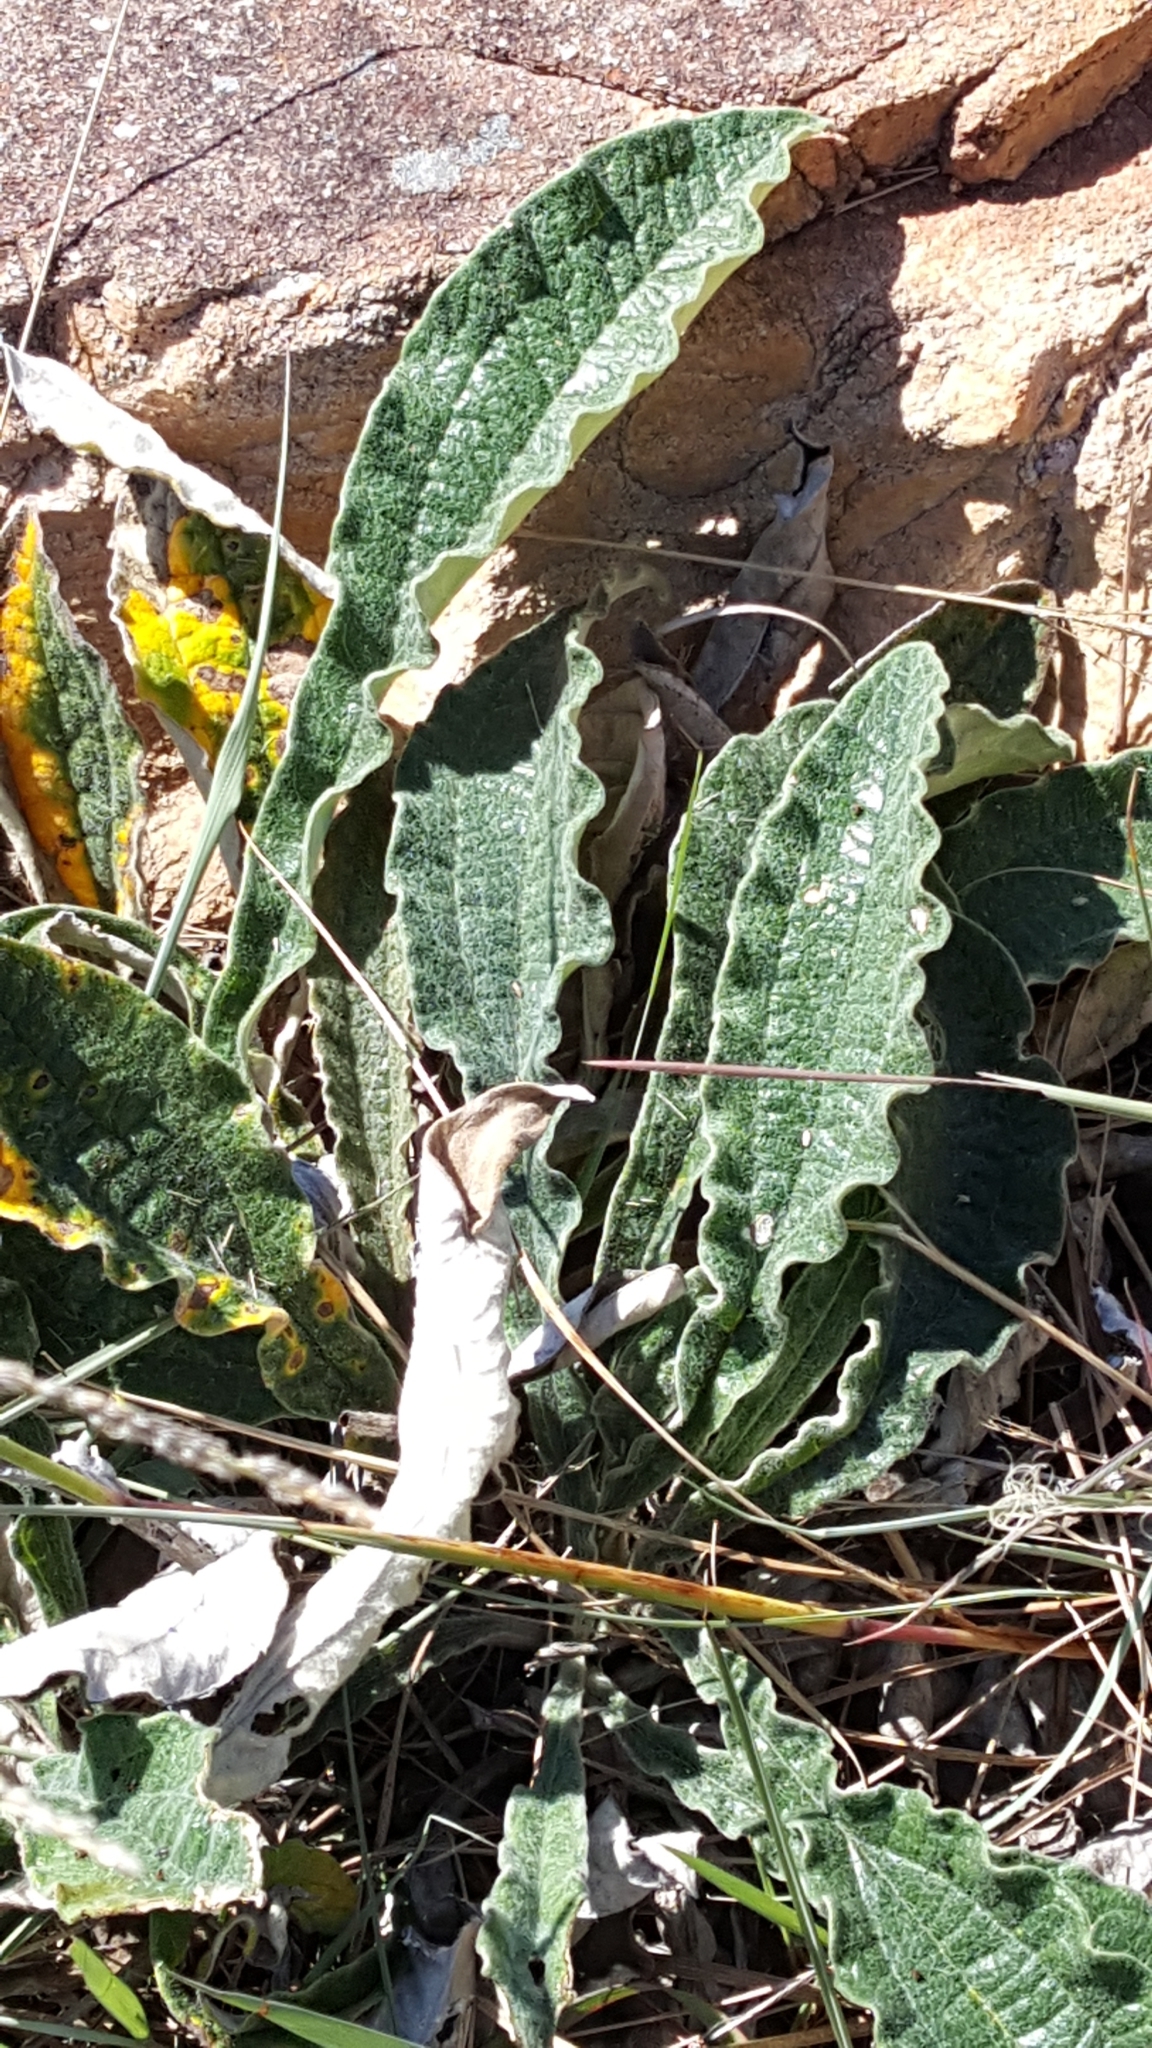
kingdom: Plantae
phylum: Tracheophyta
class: Magnoliopsida
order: Asterales
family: Asteraceae
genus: Helichrysum
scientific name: Helichrysum nudifolium
